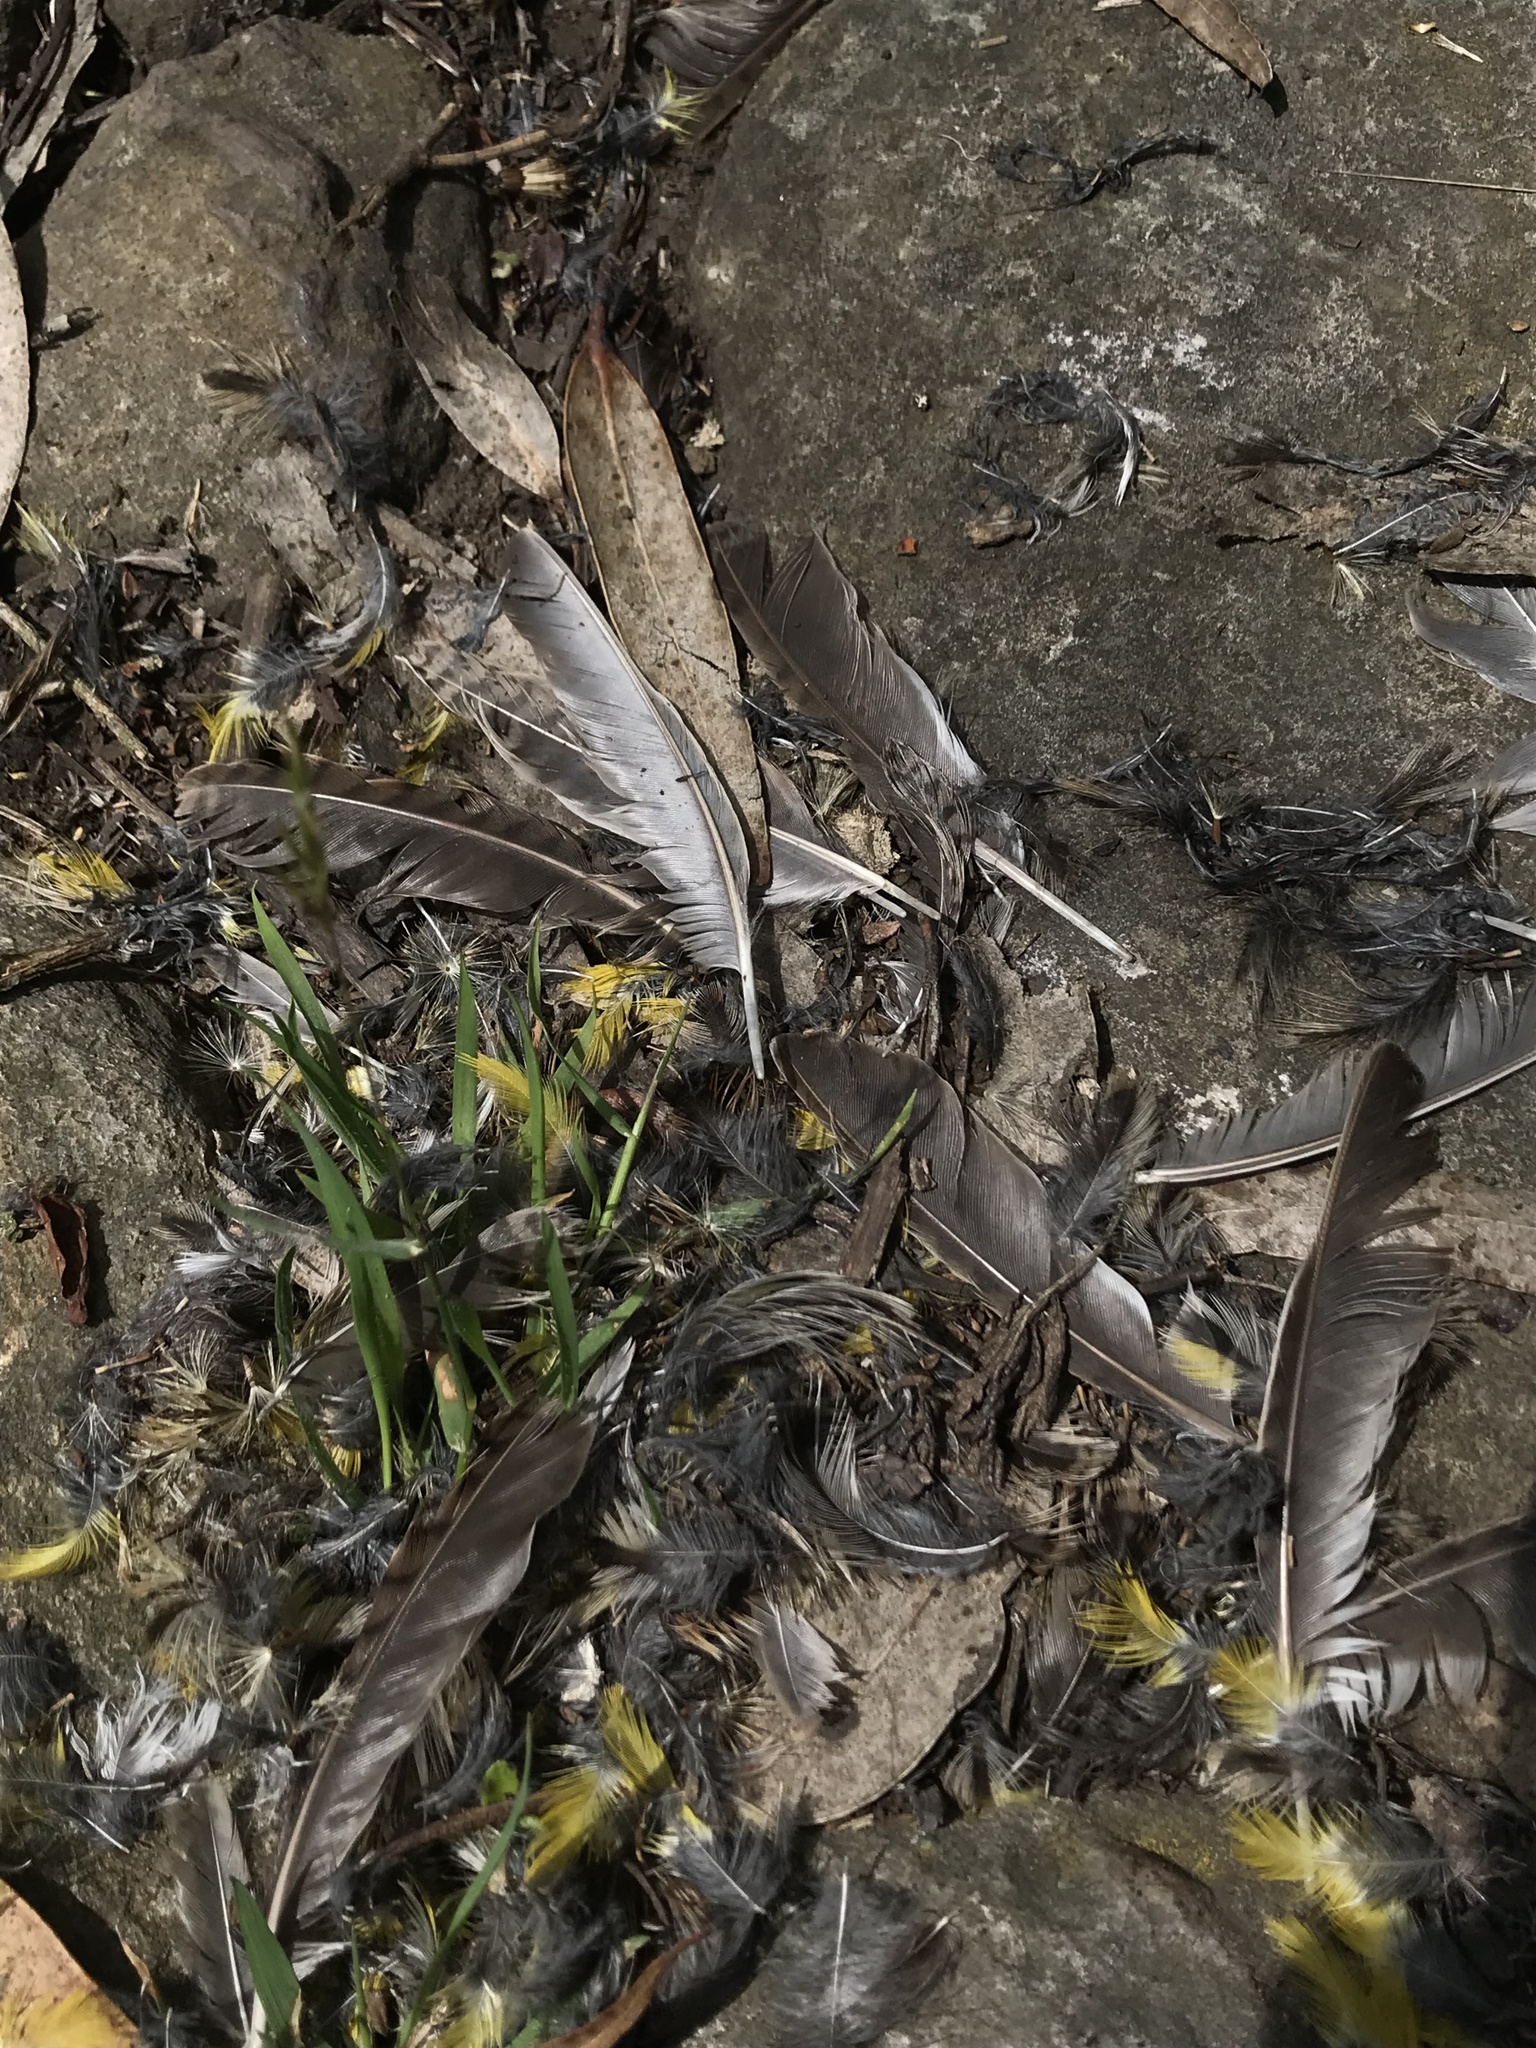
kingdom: Animalia
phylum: Chordata
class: Aves
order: Passeriformes
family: Icteridae
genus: Sturnella
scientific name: Sturnella magna
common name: Eastern meadowlark
